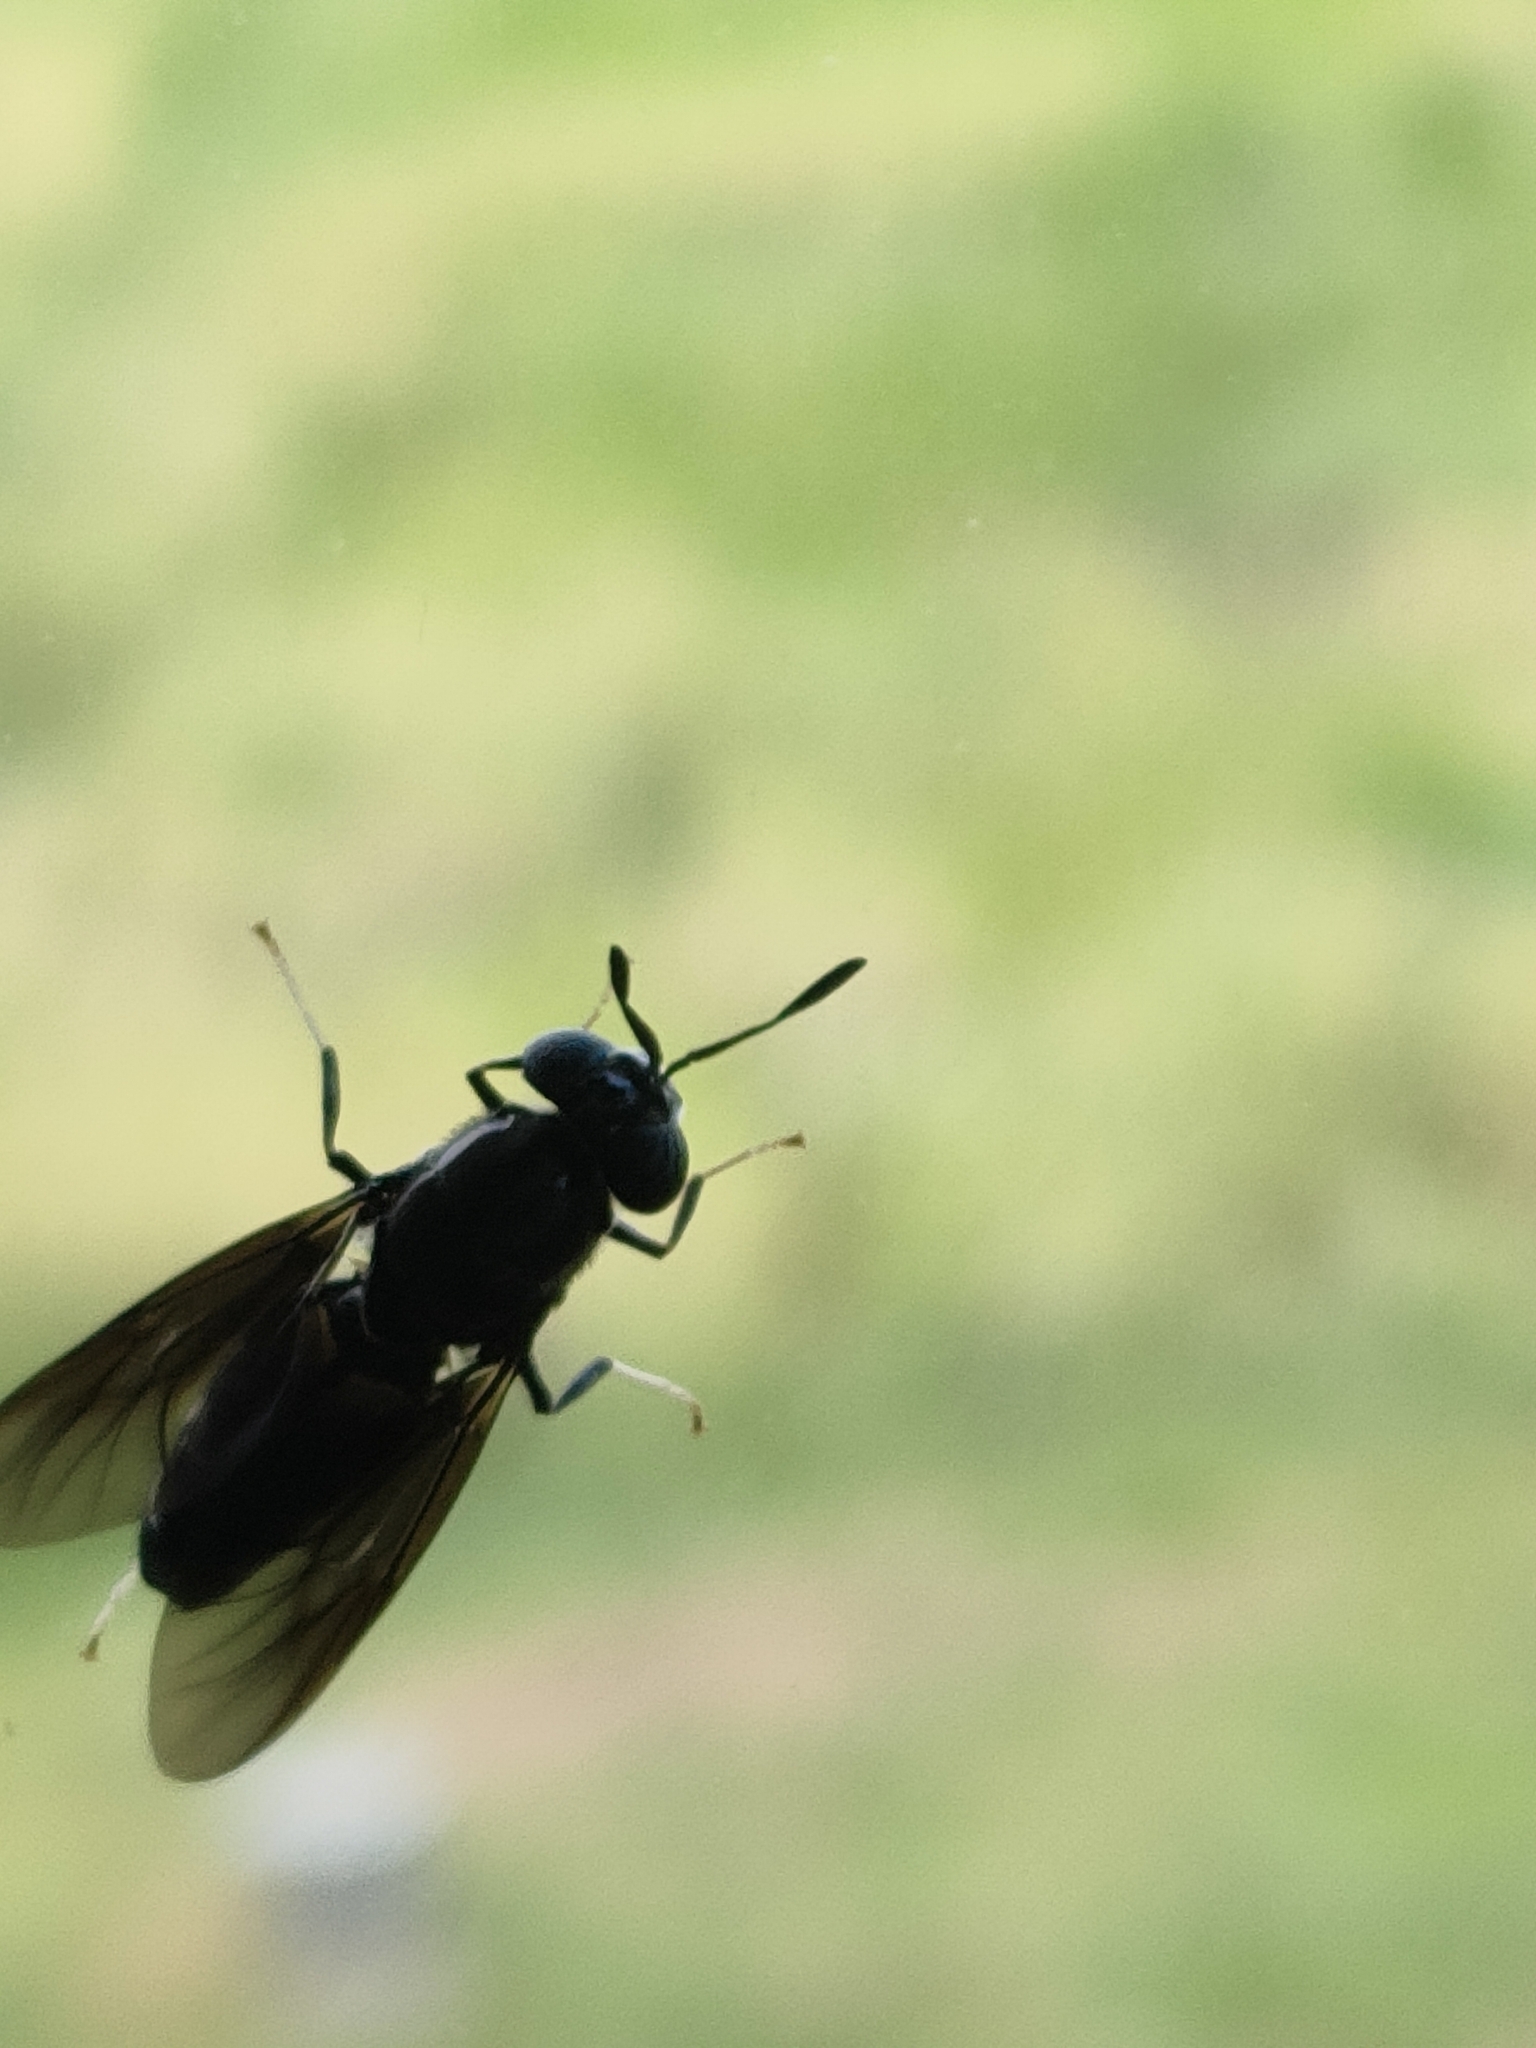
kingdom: Animalia
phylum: Arthropoda
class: Insecta
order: Diptera
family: Stratiomyidae
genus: Hermetia
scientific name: Hermetia illucens
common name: Black soldier fly
